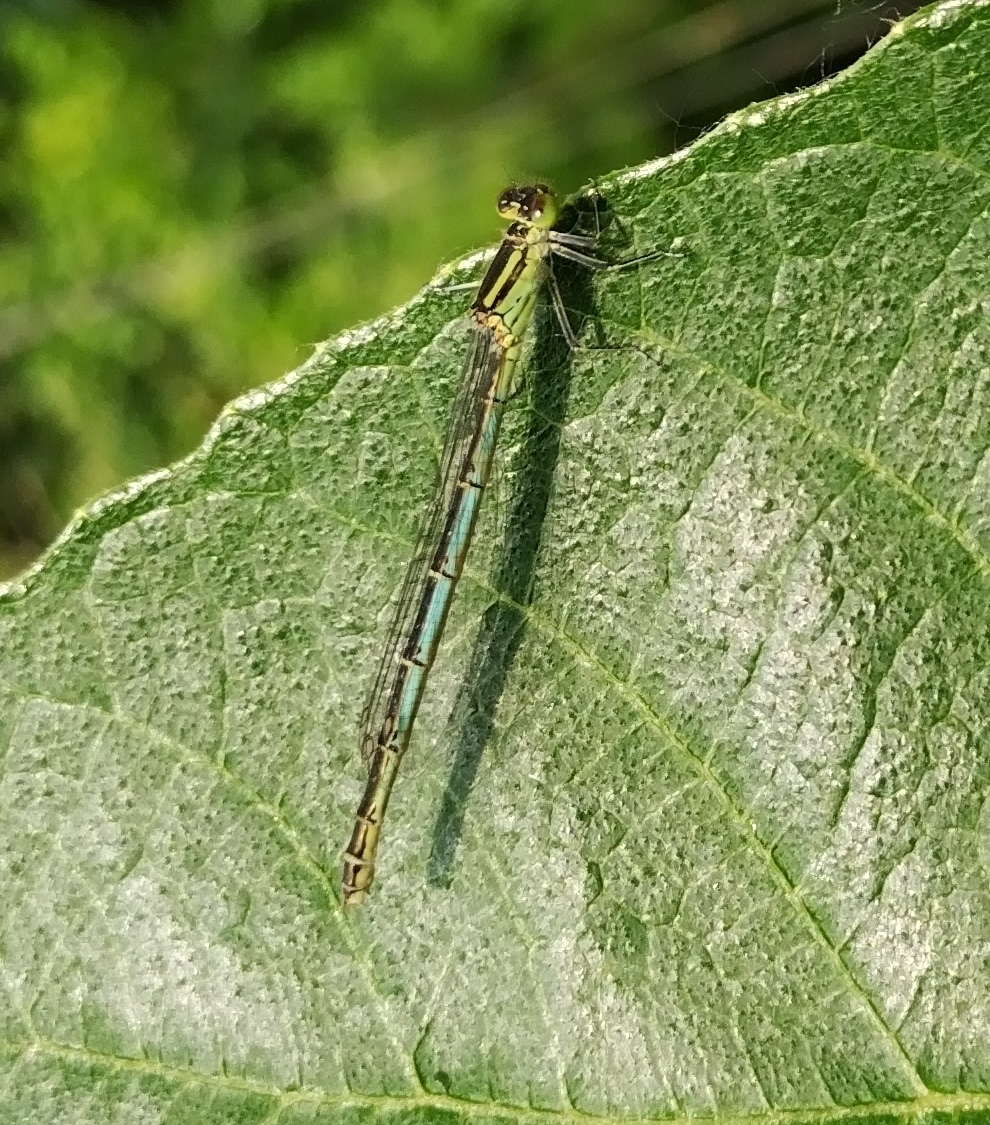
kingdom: Animalia
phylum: Arthropoda
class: Insecta
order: Odonata
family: Coenagrionidae
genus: Erythromma
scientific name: Erythromma lindenii
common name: Blue-eye
